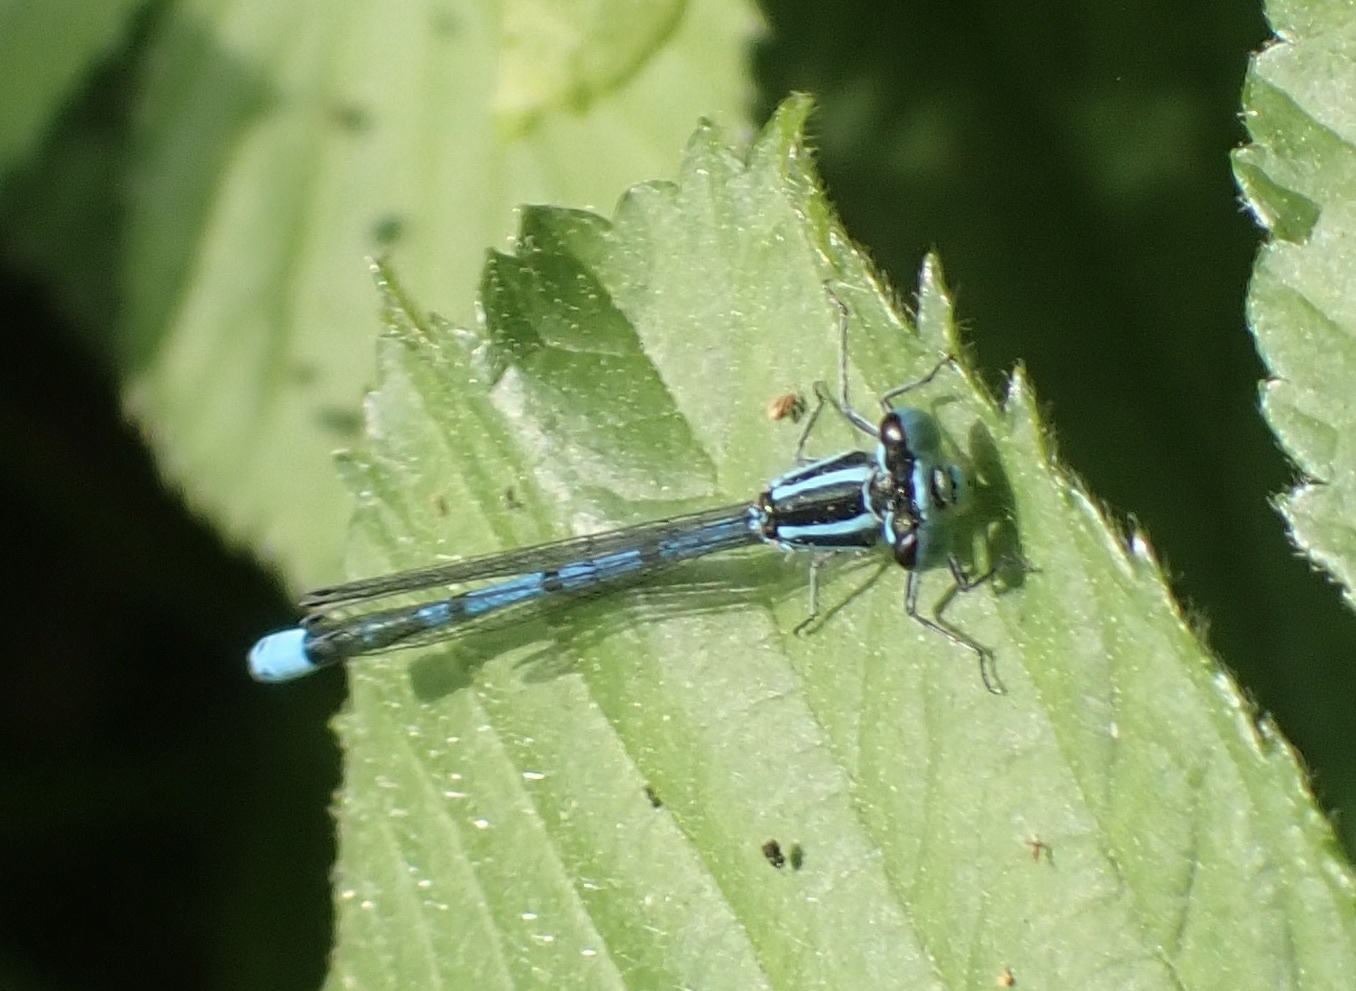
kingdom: Animalia
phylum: Arthropoda
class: Insecta
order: Odonata
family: Coenagrionidae
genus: Coenagrion
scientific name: Coenagrion puella
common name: Azure damselfly
